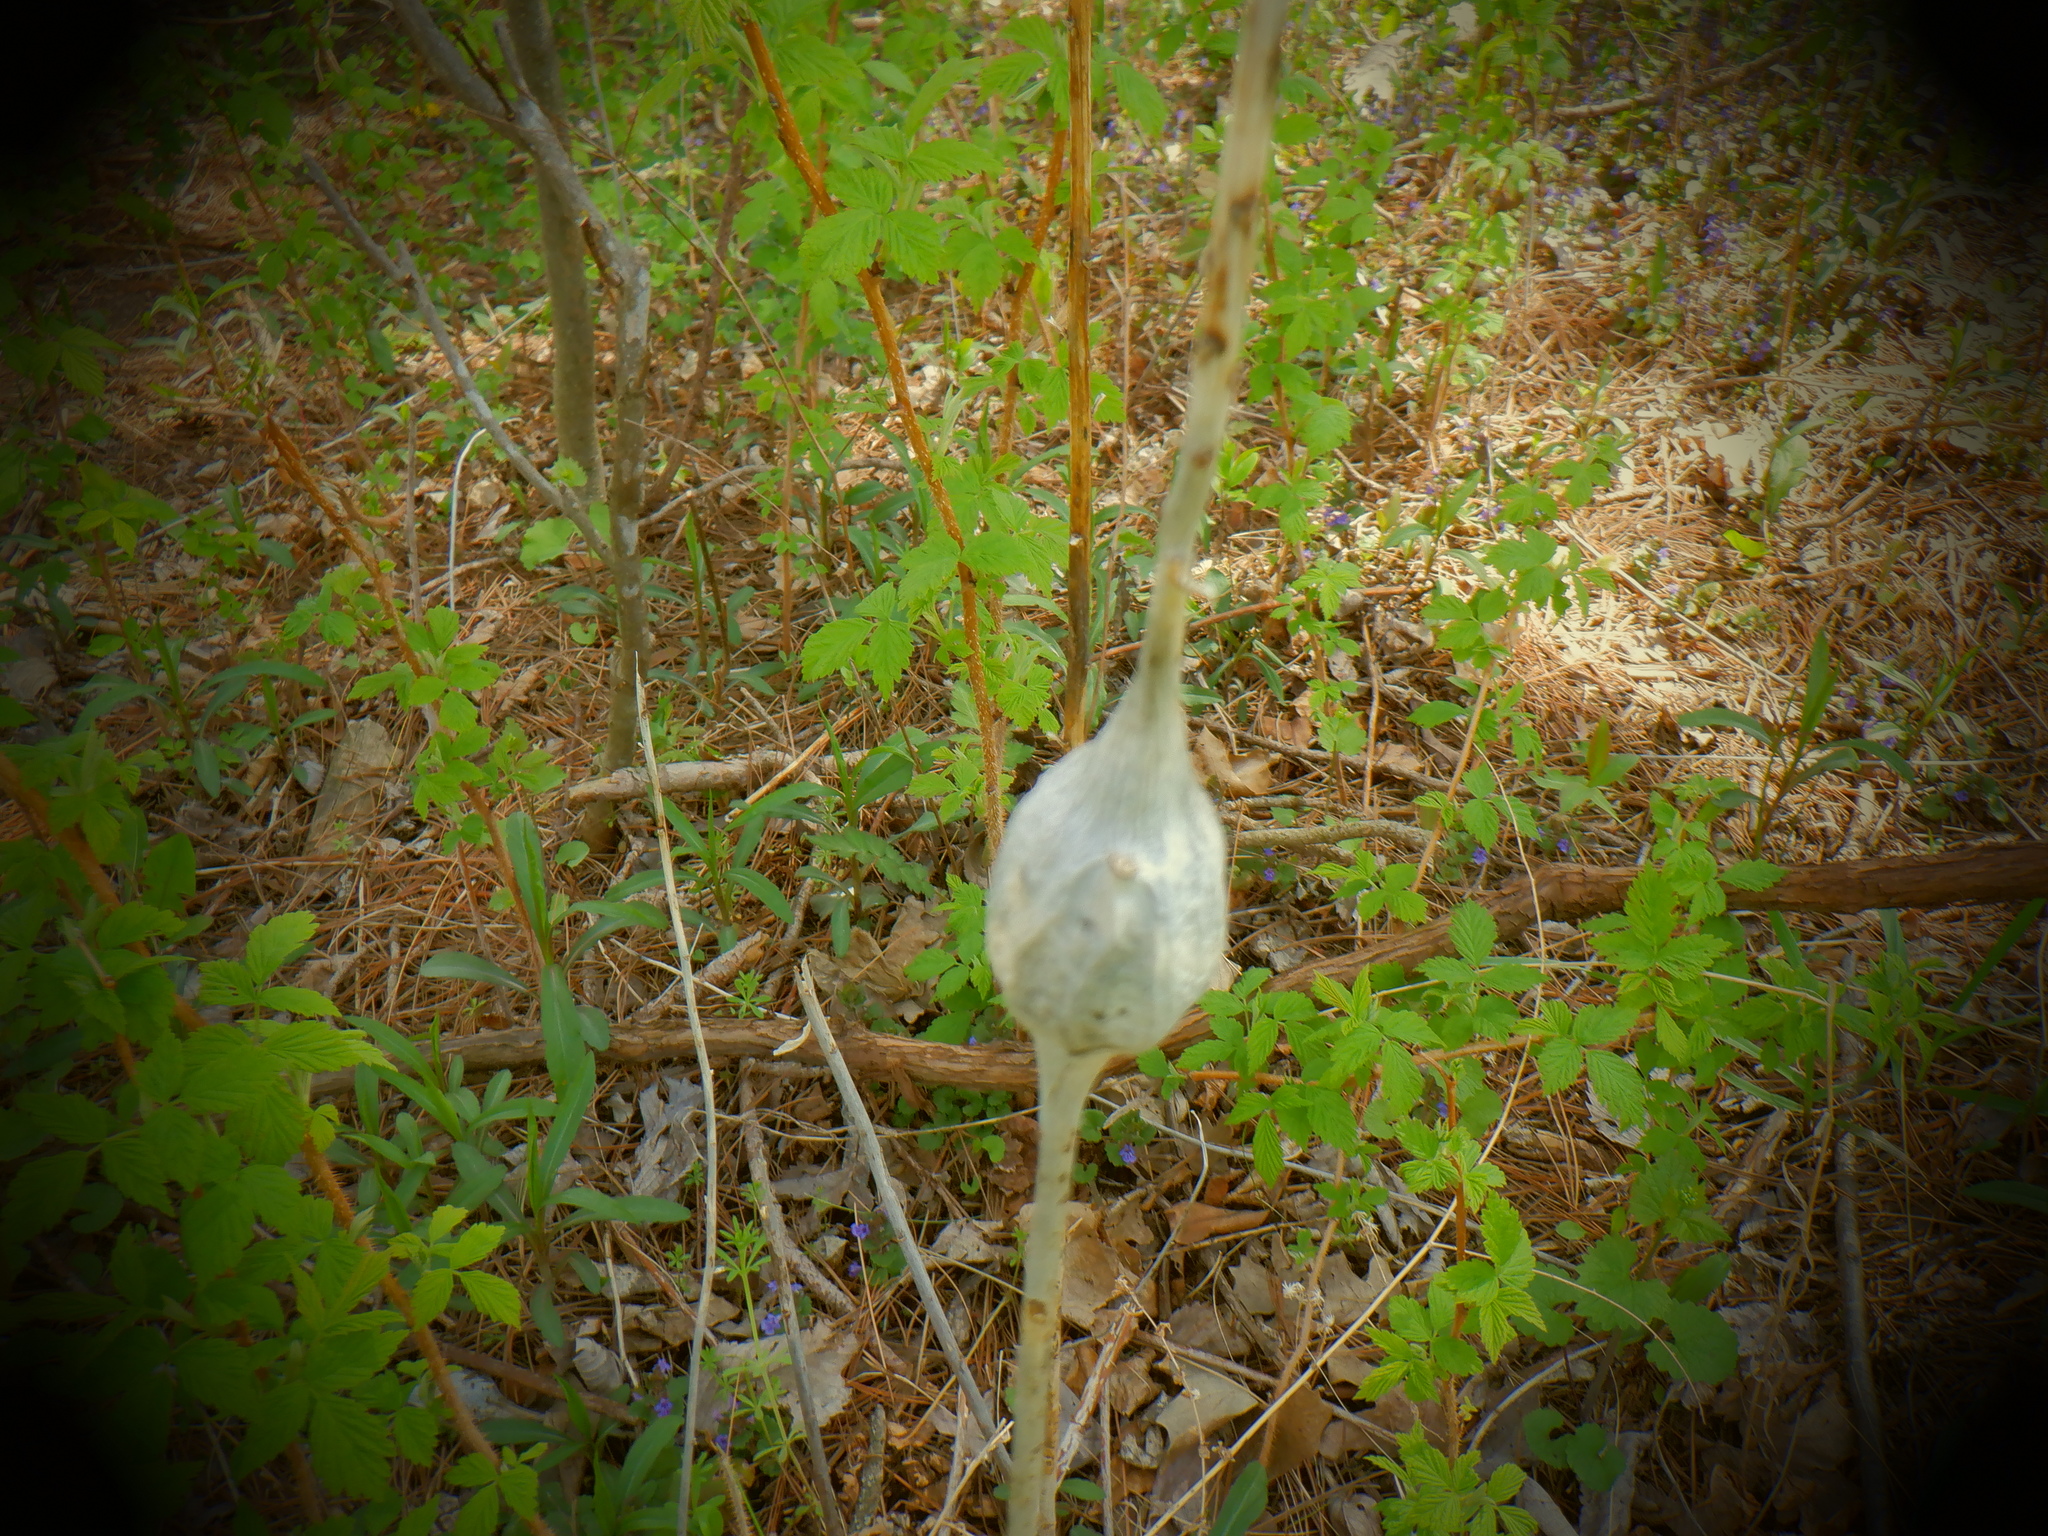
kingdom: Animalia
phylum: Arthropoda
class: Insecta
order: Diptera
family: Tephritidae
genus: Eurosta
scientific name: Eurosta solidaginis
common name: Goldenrod gall fly
